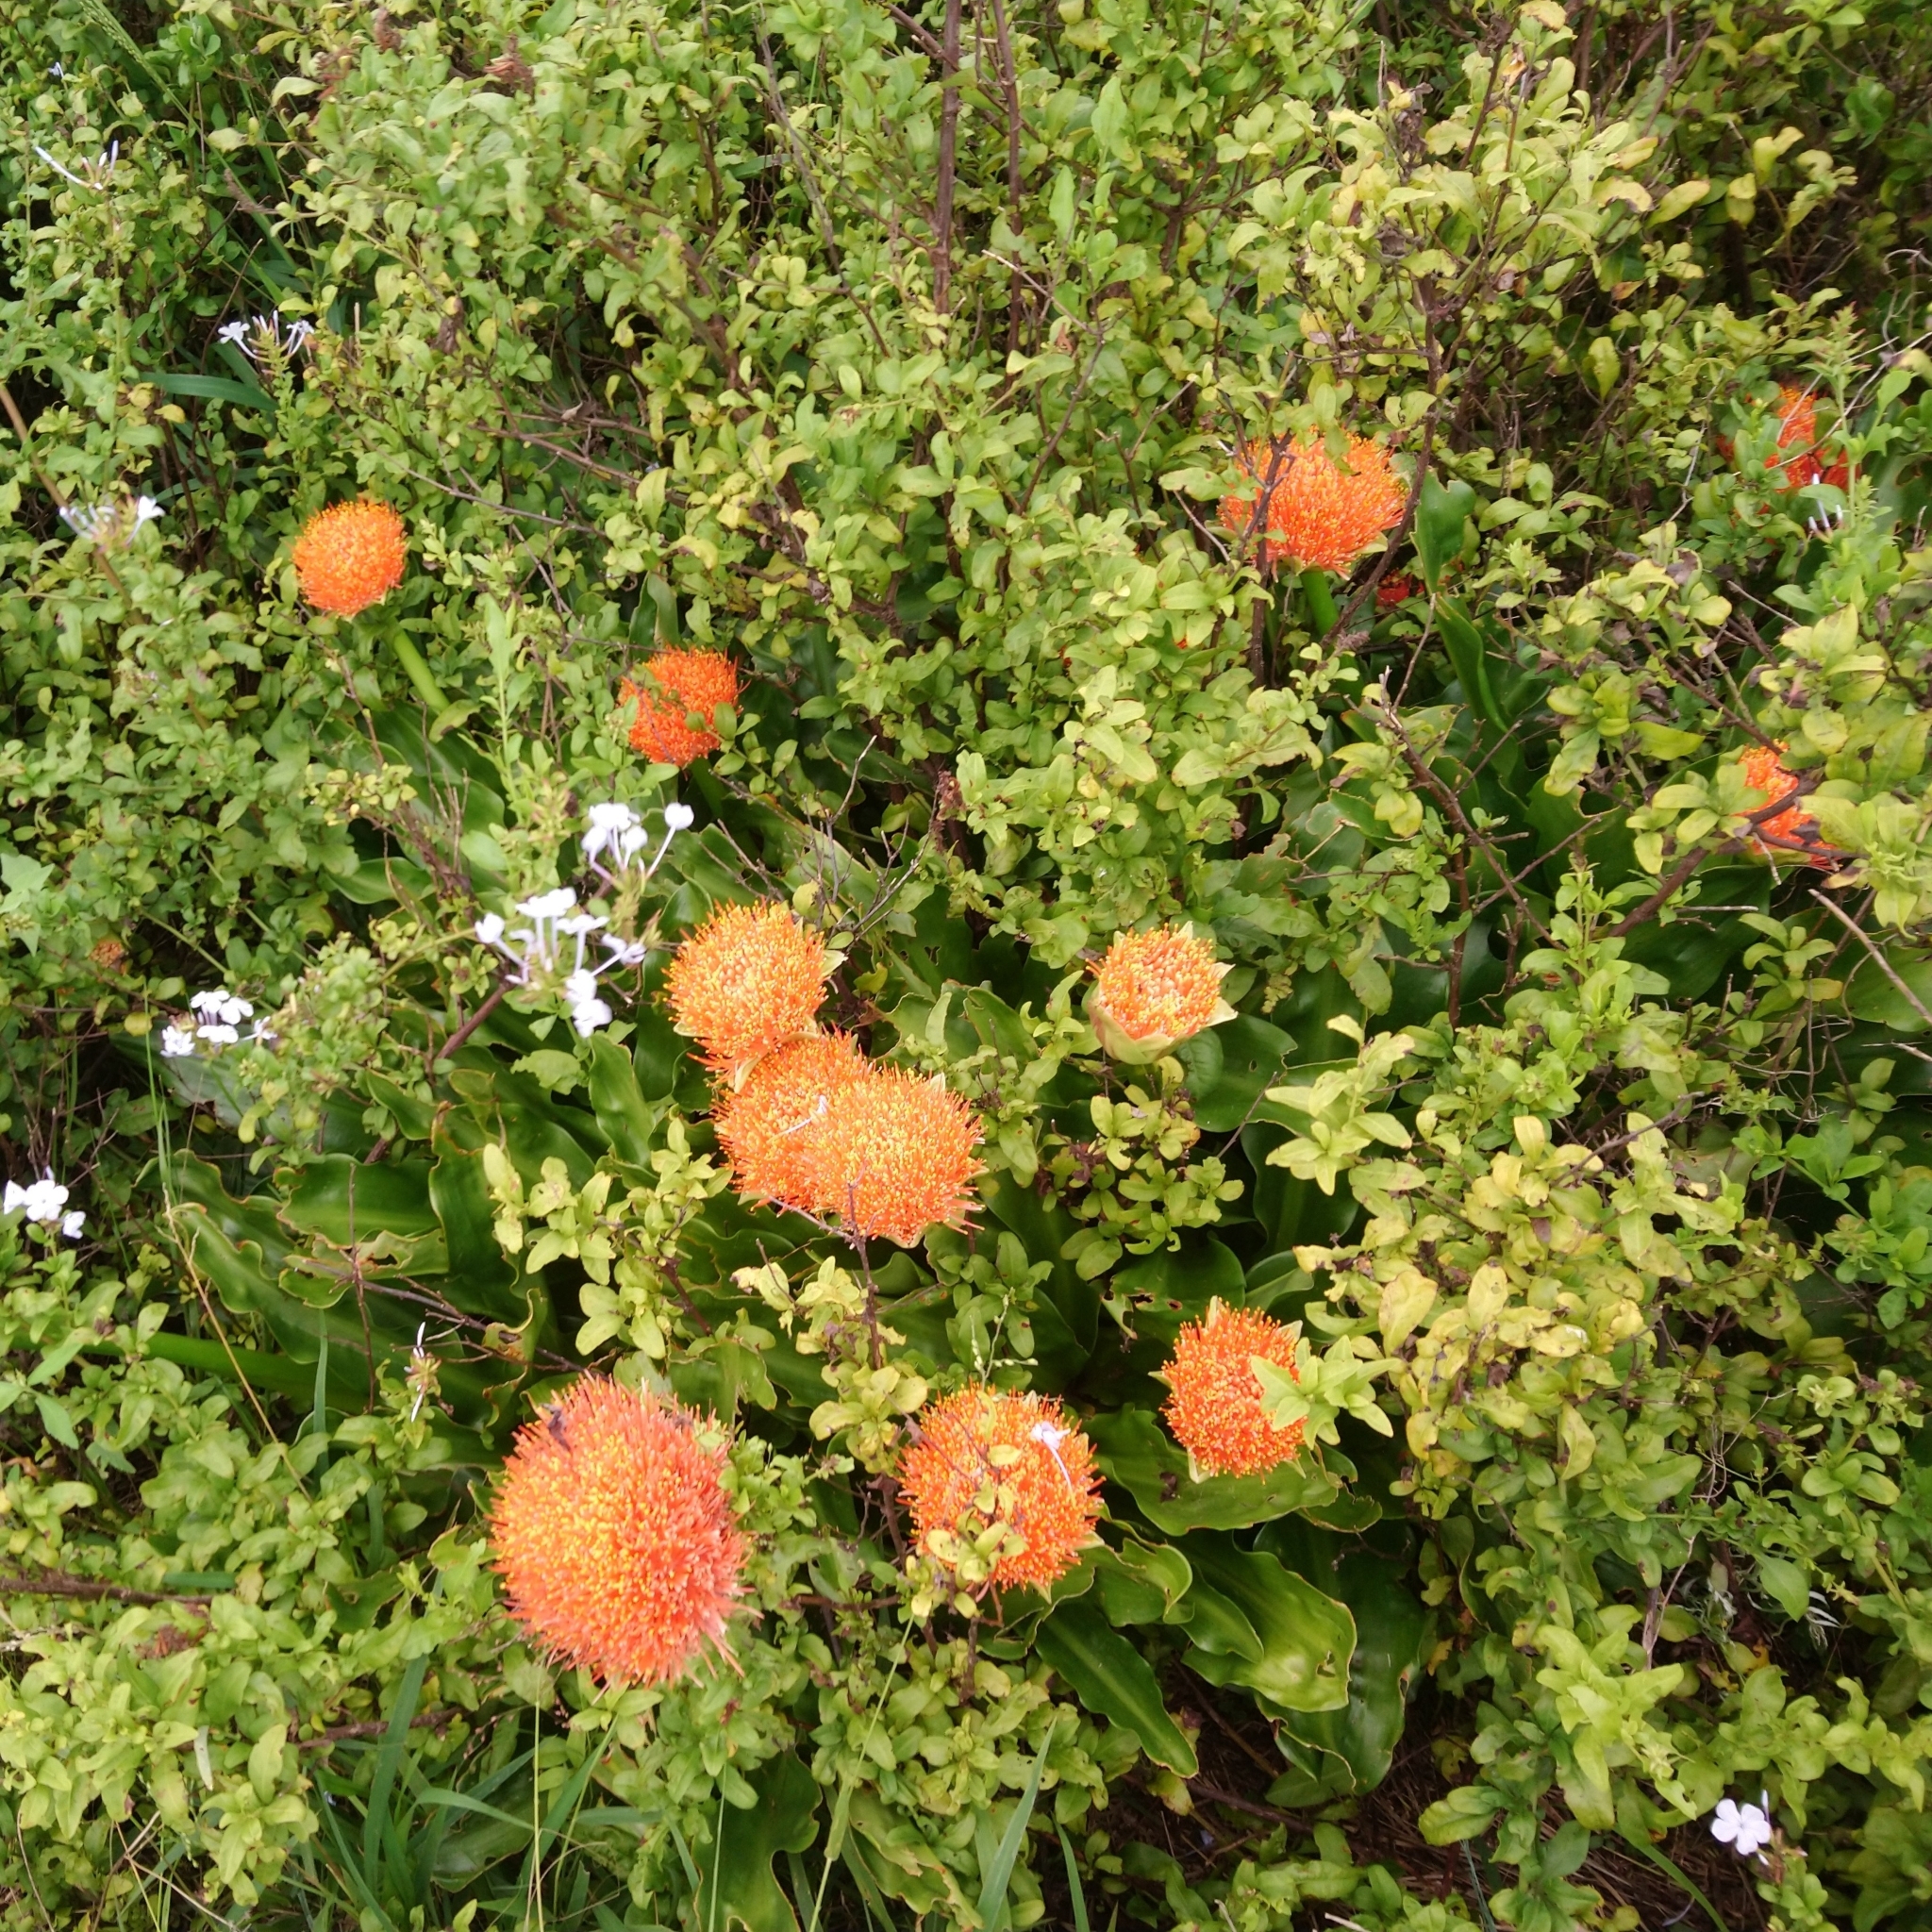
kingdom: Plantae
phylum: Tracheophyta
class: Liliopsida
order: Asparagales
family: Amaryllidaceae
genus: Scadoxus
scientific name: Scadoxus puniceus
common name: Royal-paintbrush
